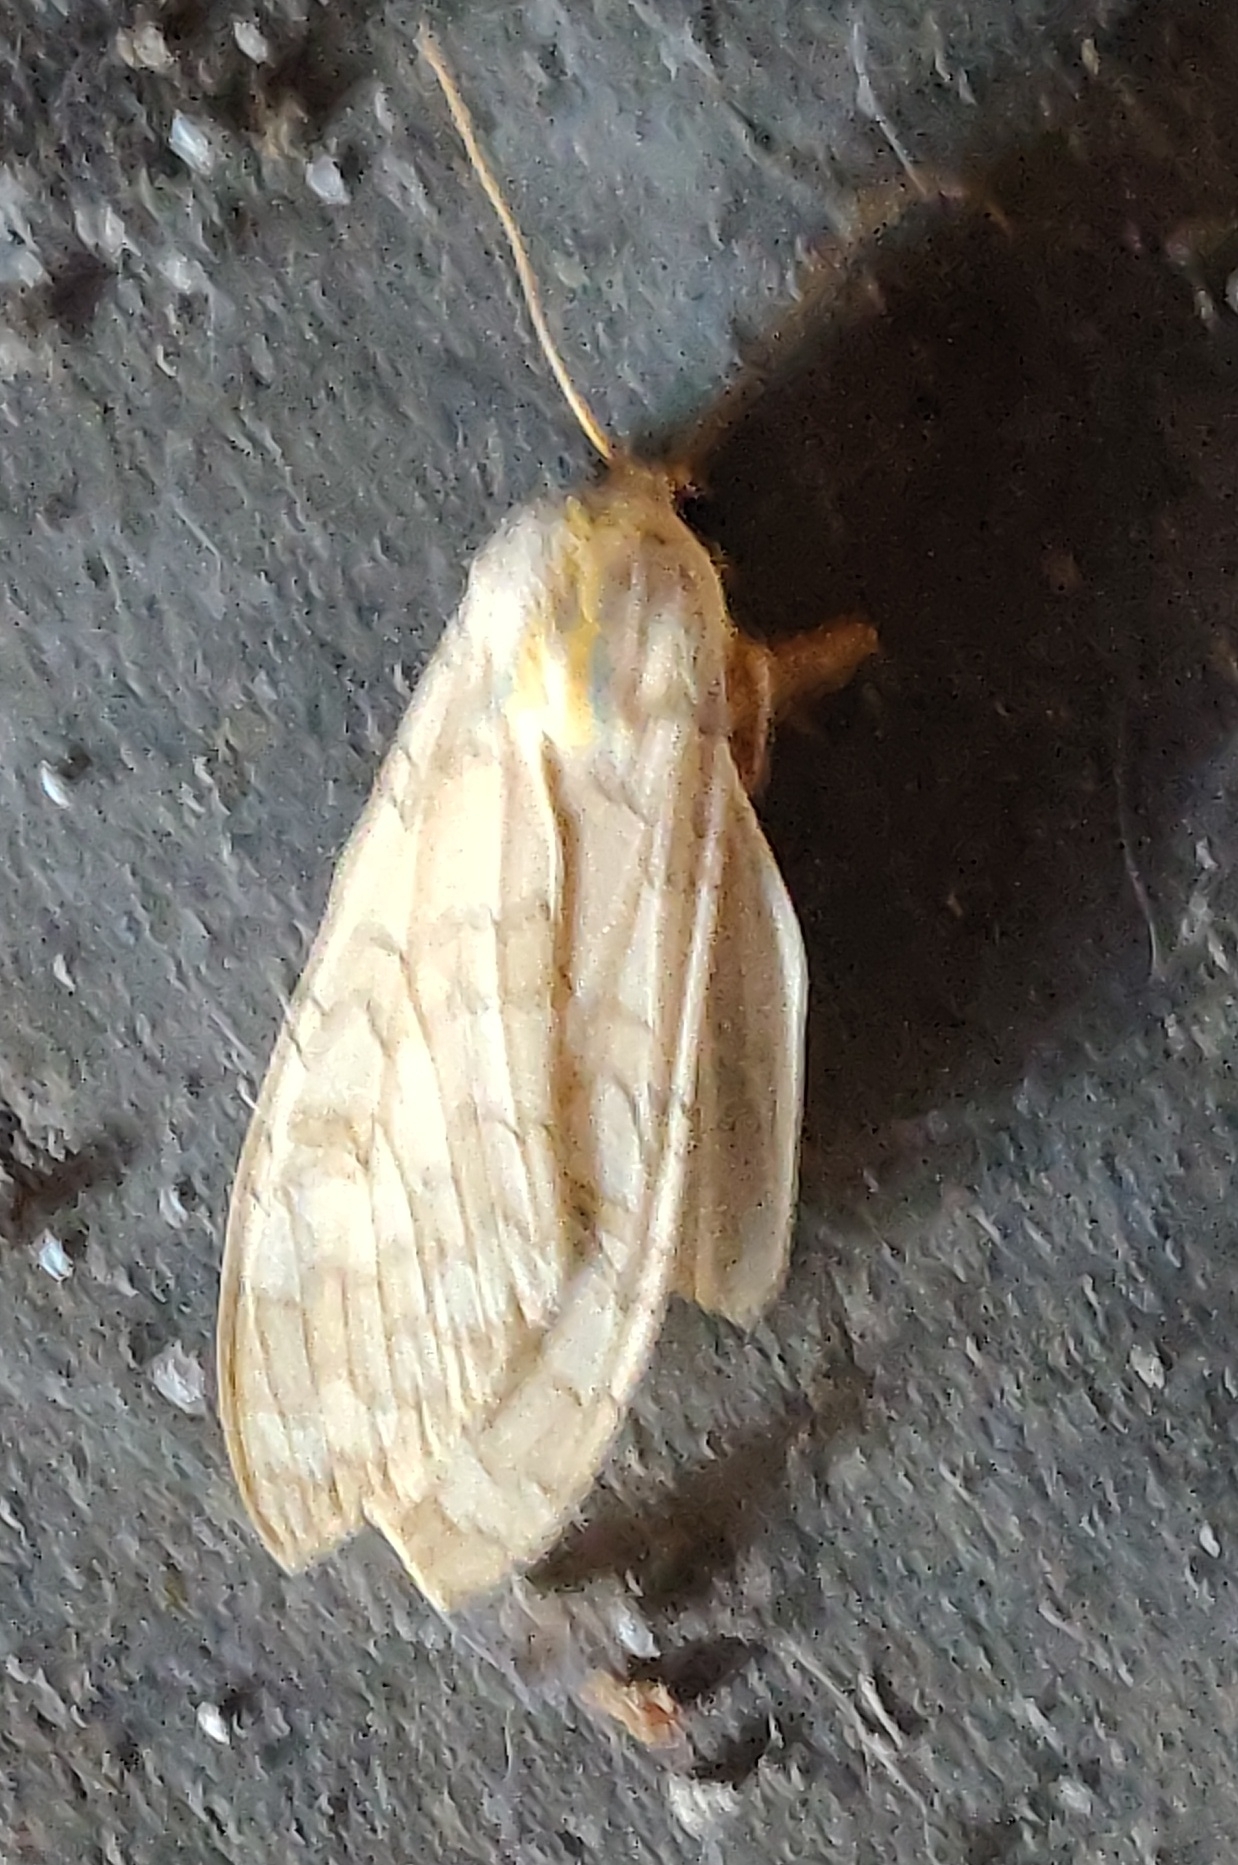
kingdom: Animalia
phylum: Arthropoda
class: Insecta
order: Lepidoptera
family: Erebidae
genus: Halysidota
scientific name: Halysidota
